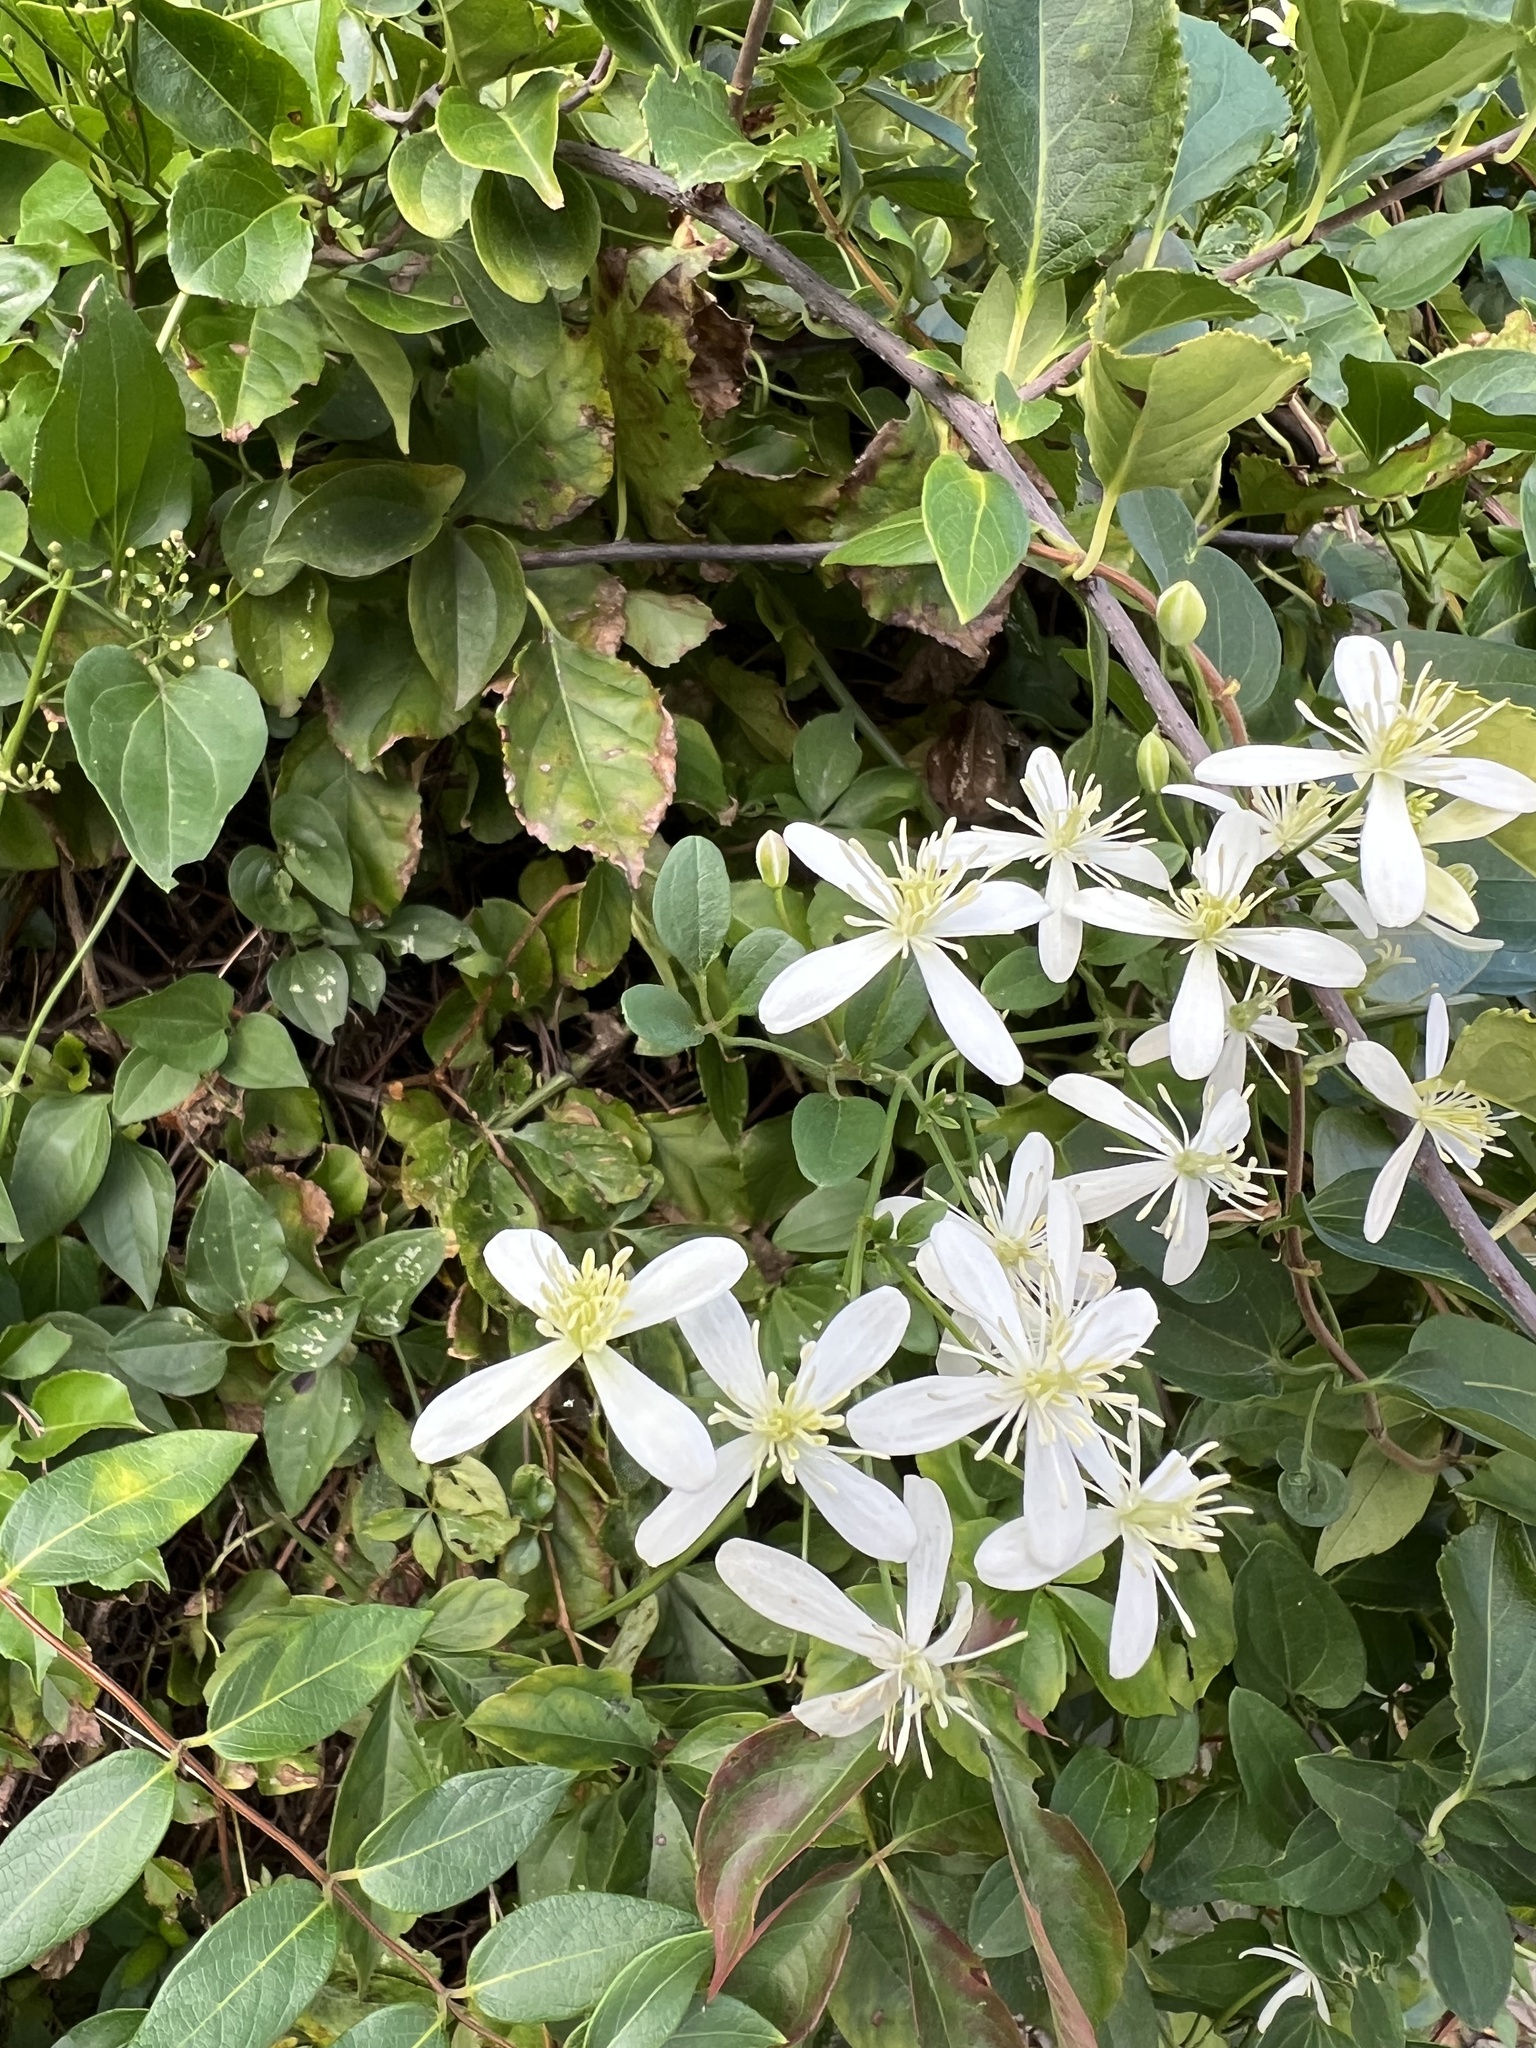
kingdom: Plantae
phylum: Tracheophyta
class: Magnoliopsida
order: Ranunculales
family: Ranunculaceae
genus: Clematis
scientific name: Clematis terniflora
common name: Sweet autumn clematis
